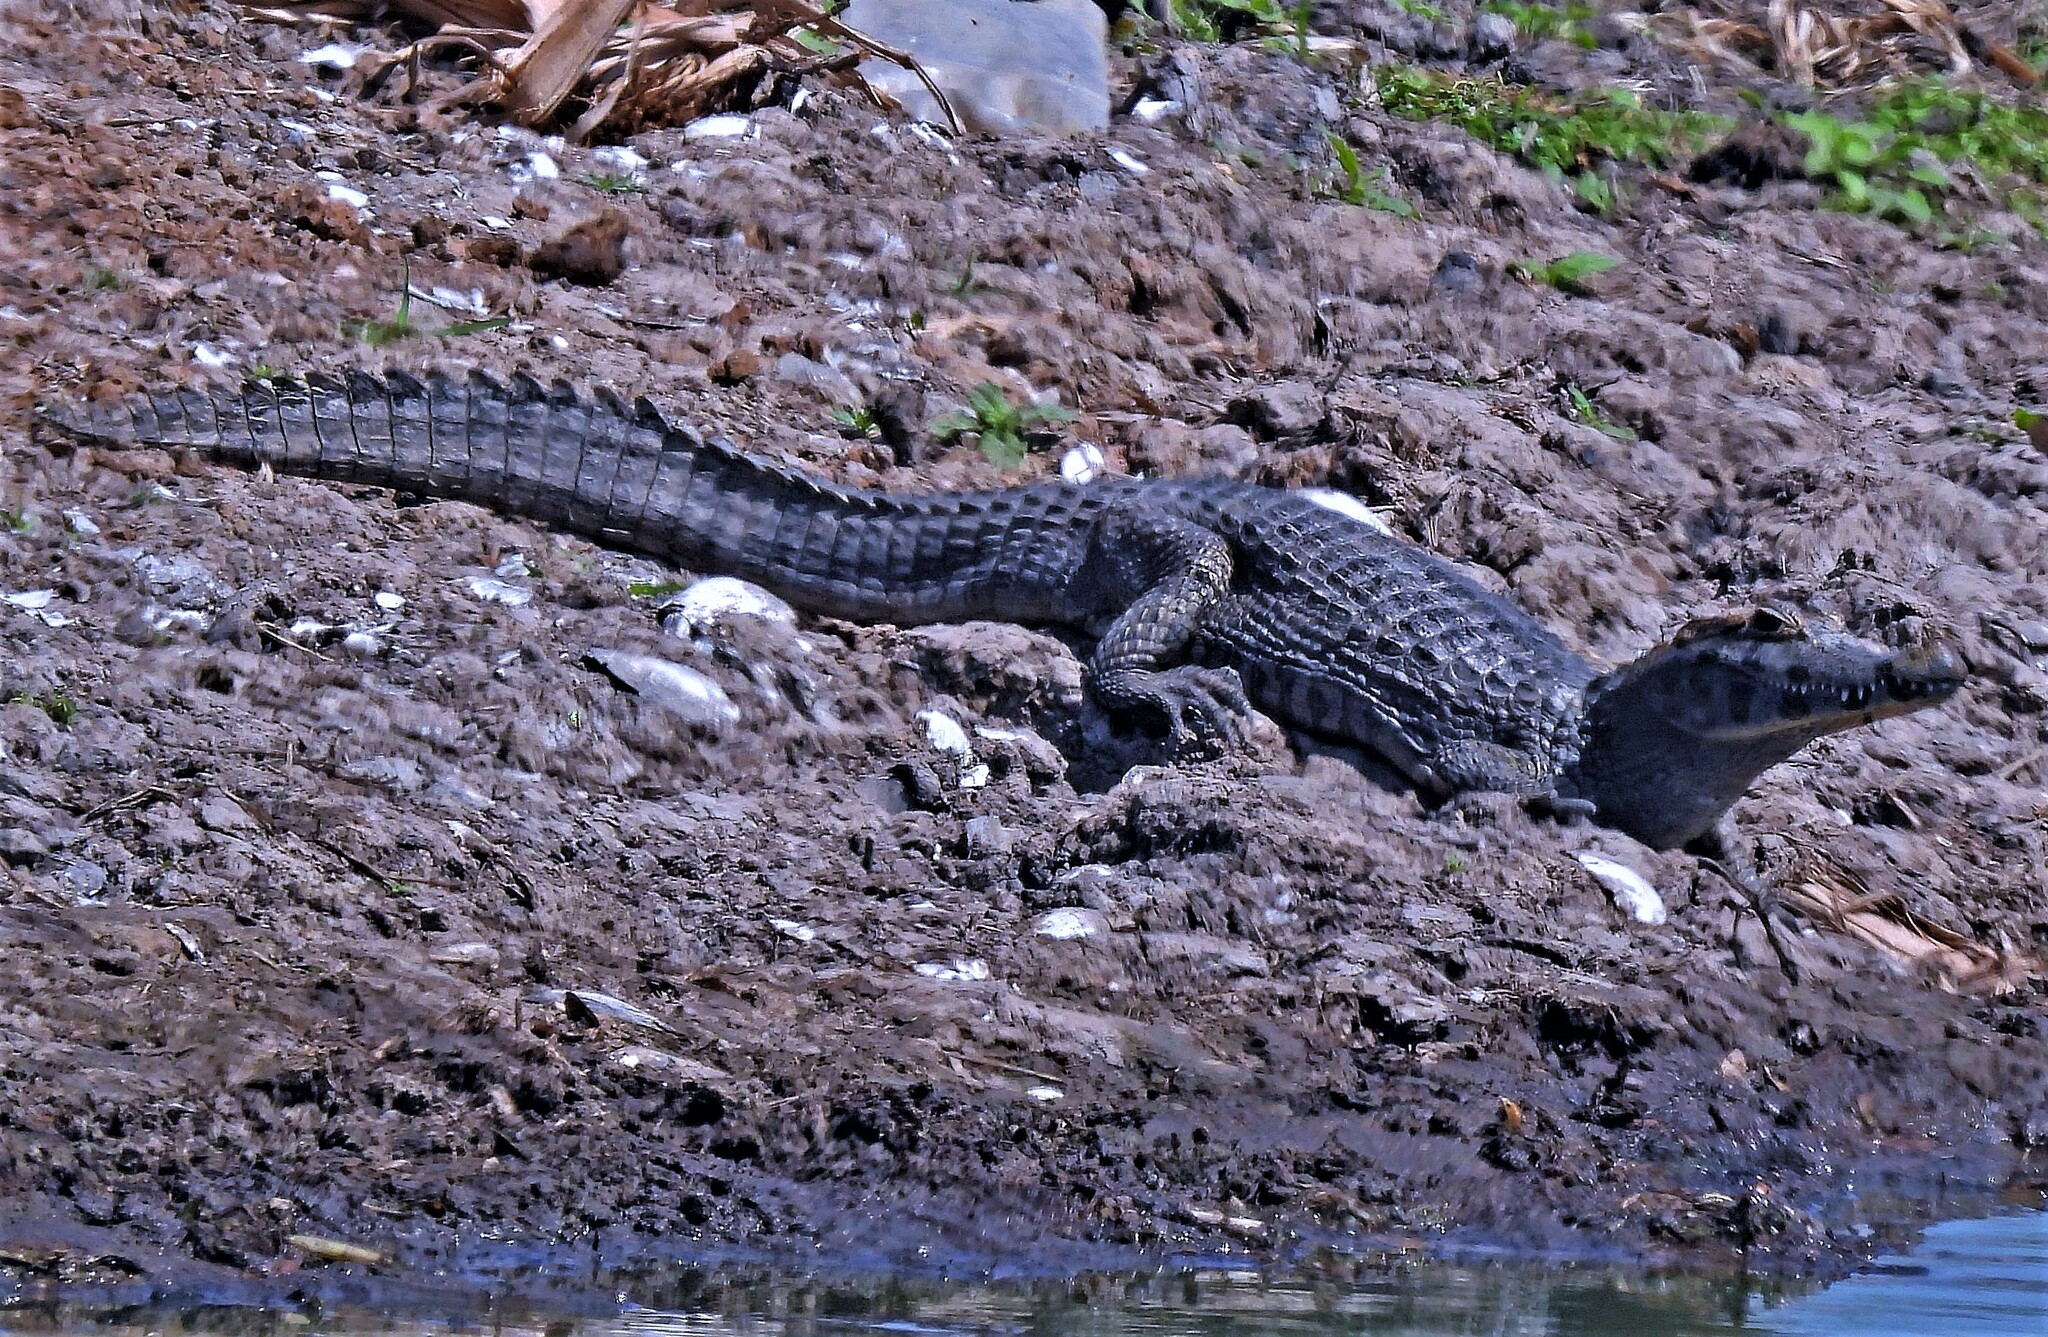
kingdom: Animalia
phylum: Chordata
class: Crocodylia
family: Alligatoridae
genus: Caiman
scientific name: Caiman yacare
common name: Yacare caiman
